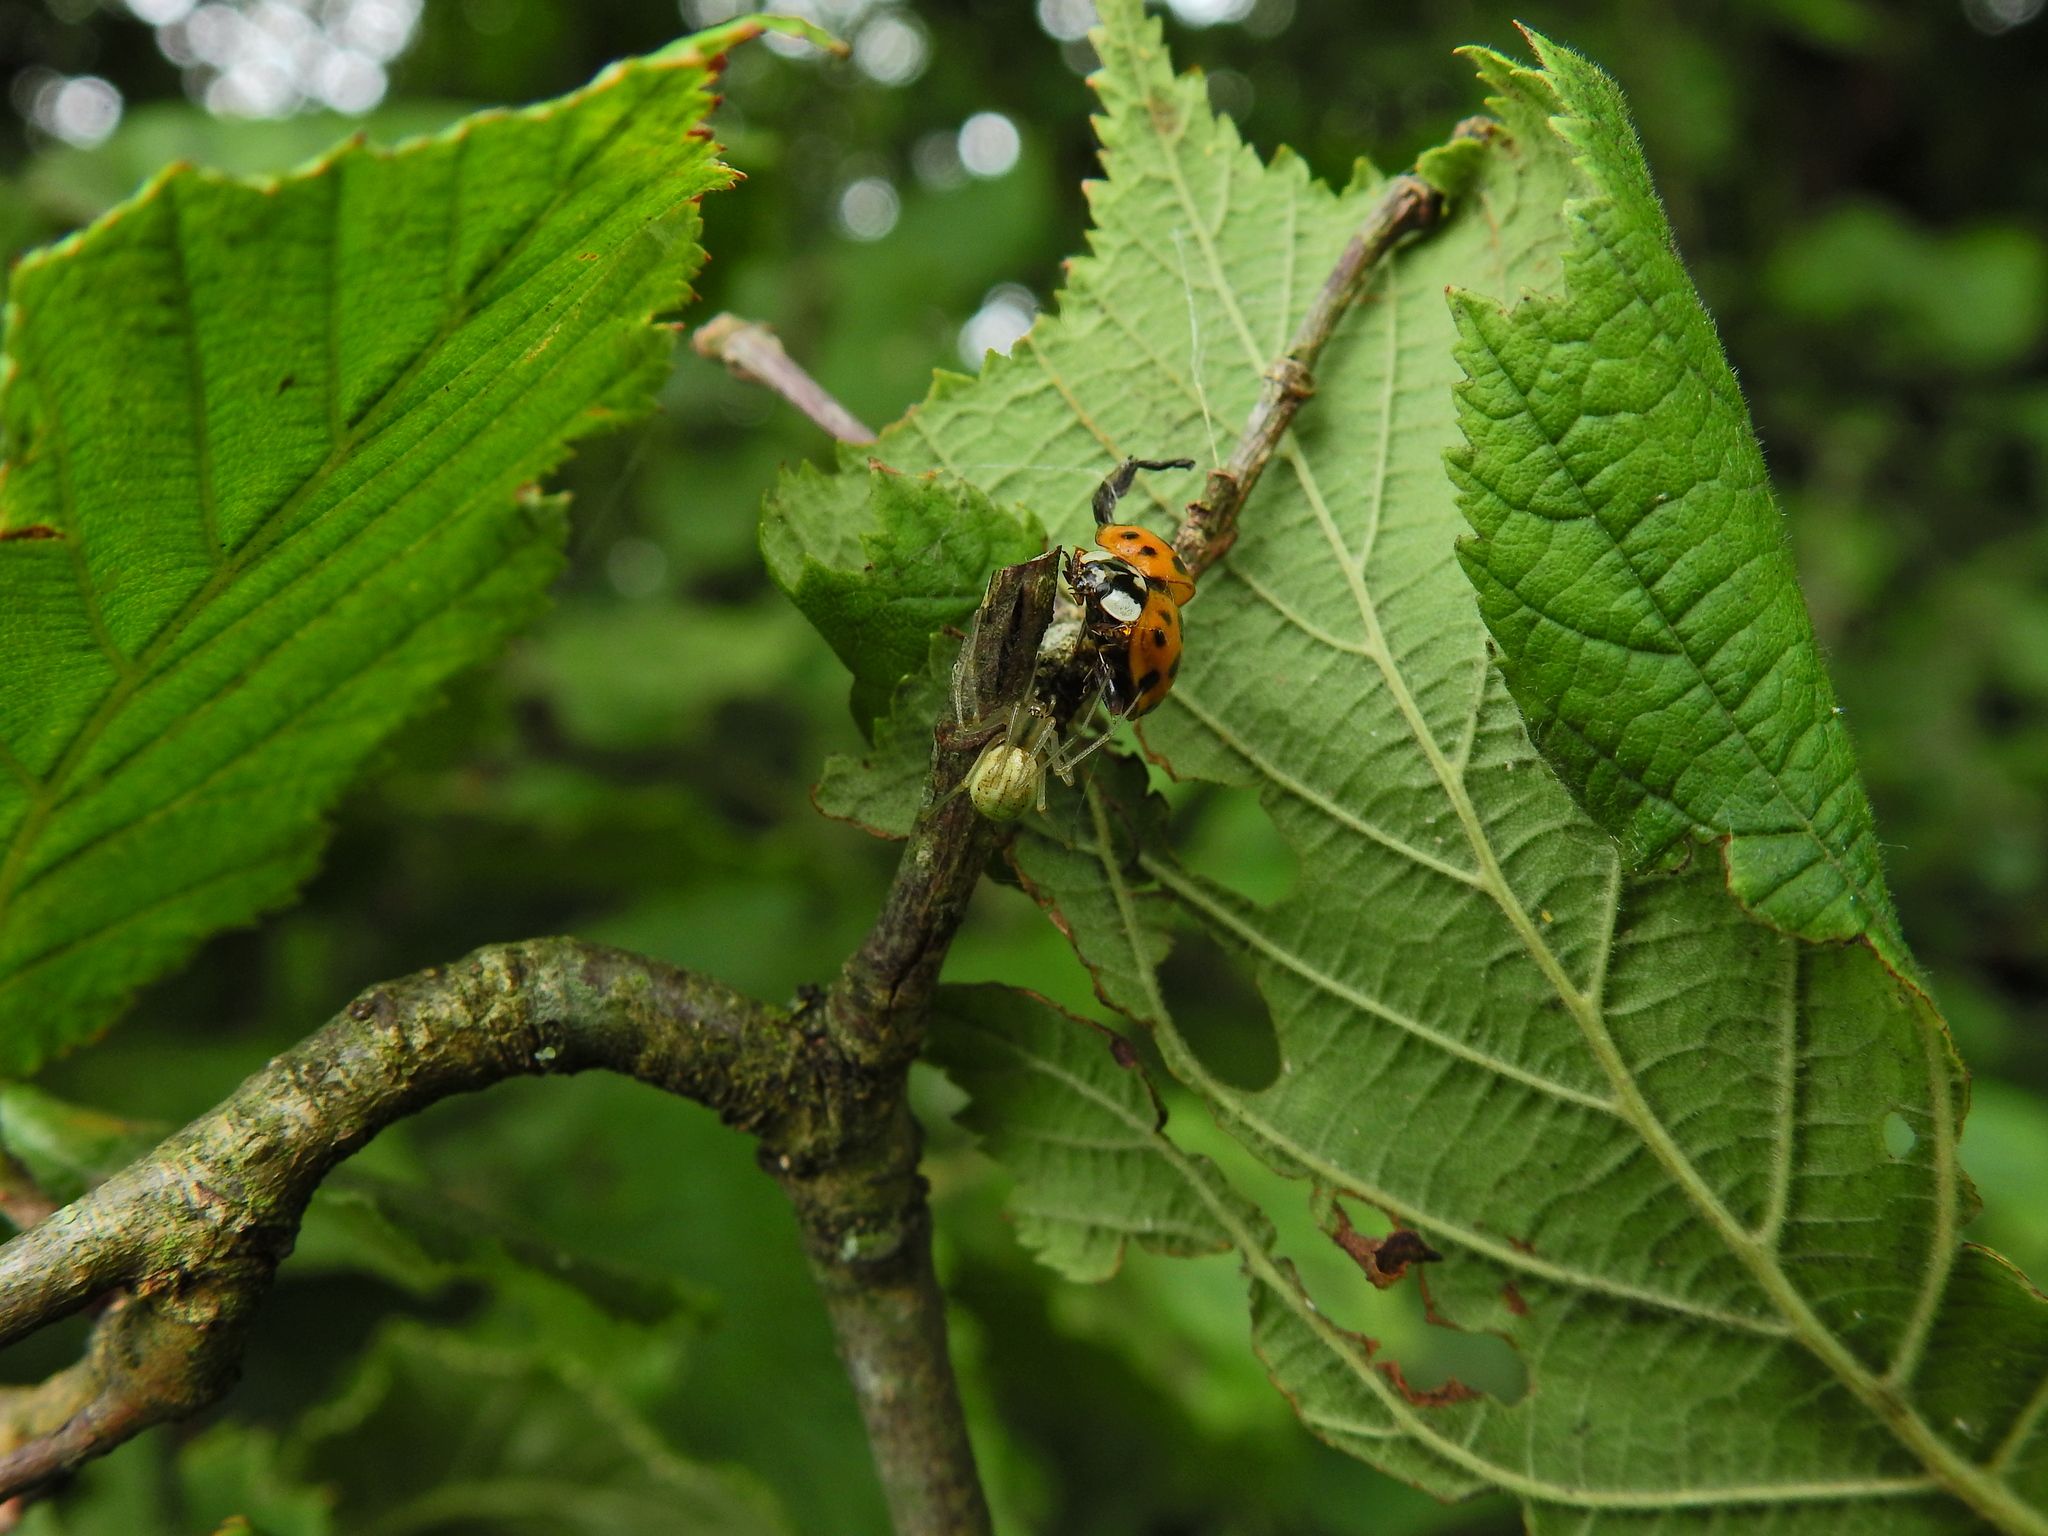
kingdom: Animalia
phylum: Arthropoda
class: Arachnida
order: Araneae
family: Theridiidae
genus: Enoplognatha
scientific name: Enoplognatha ovata
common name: Common candy-striped spider
